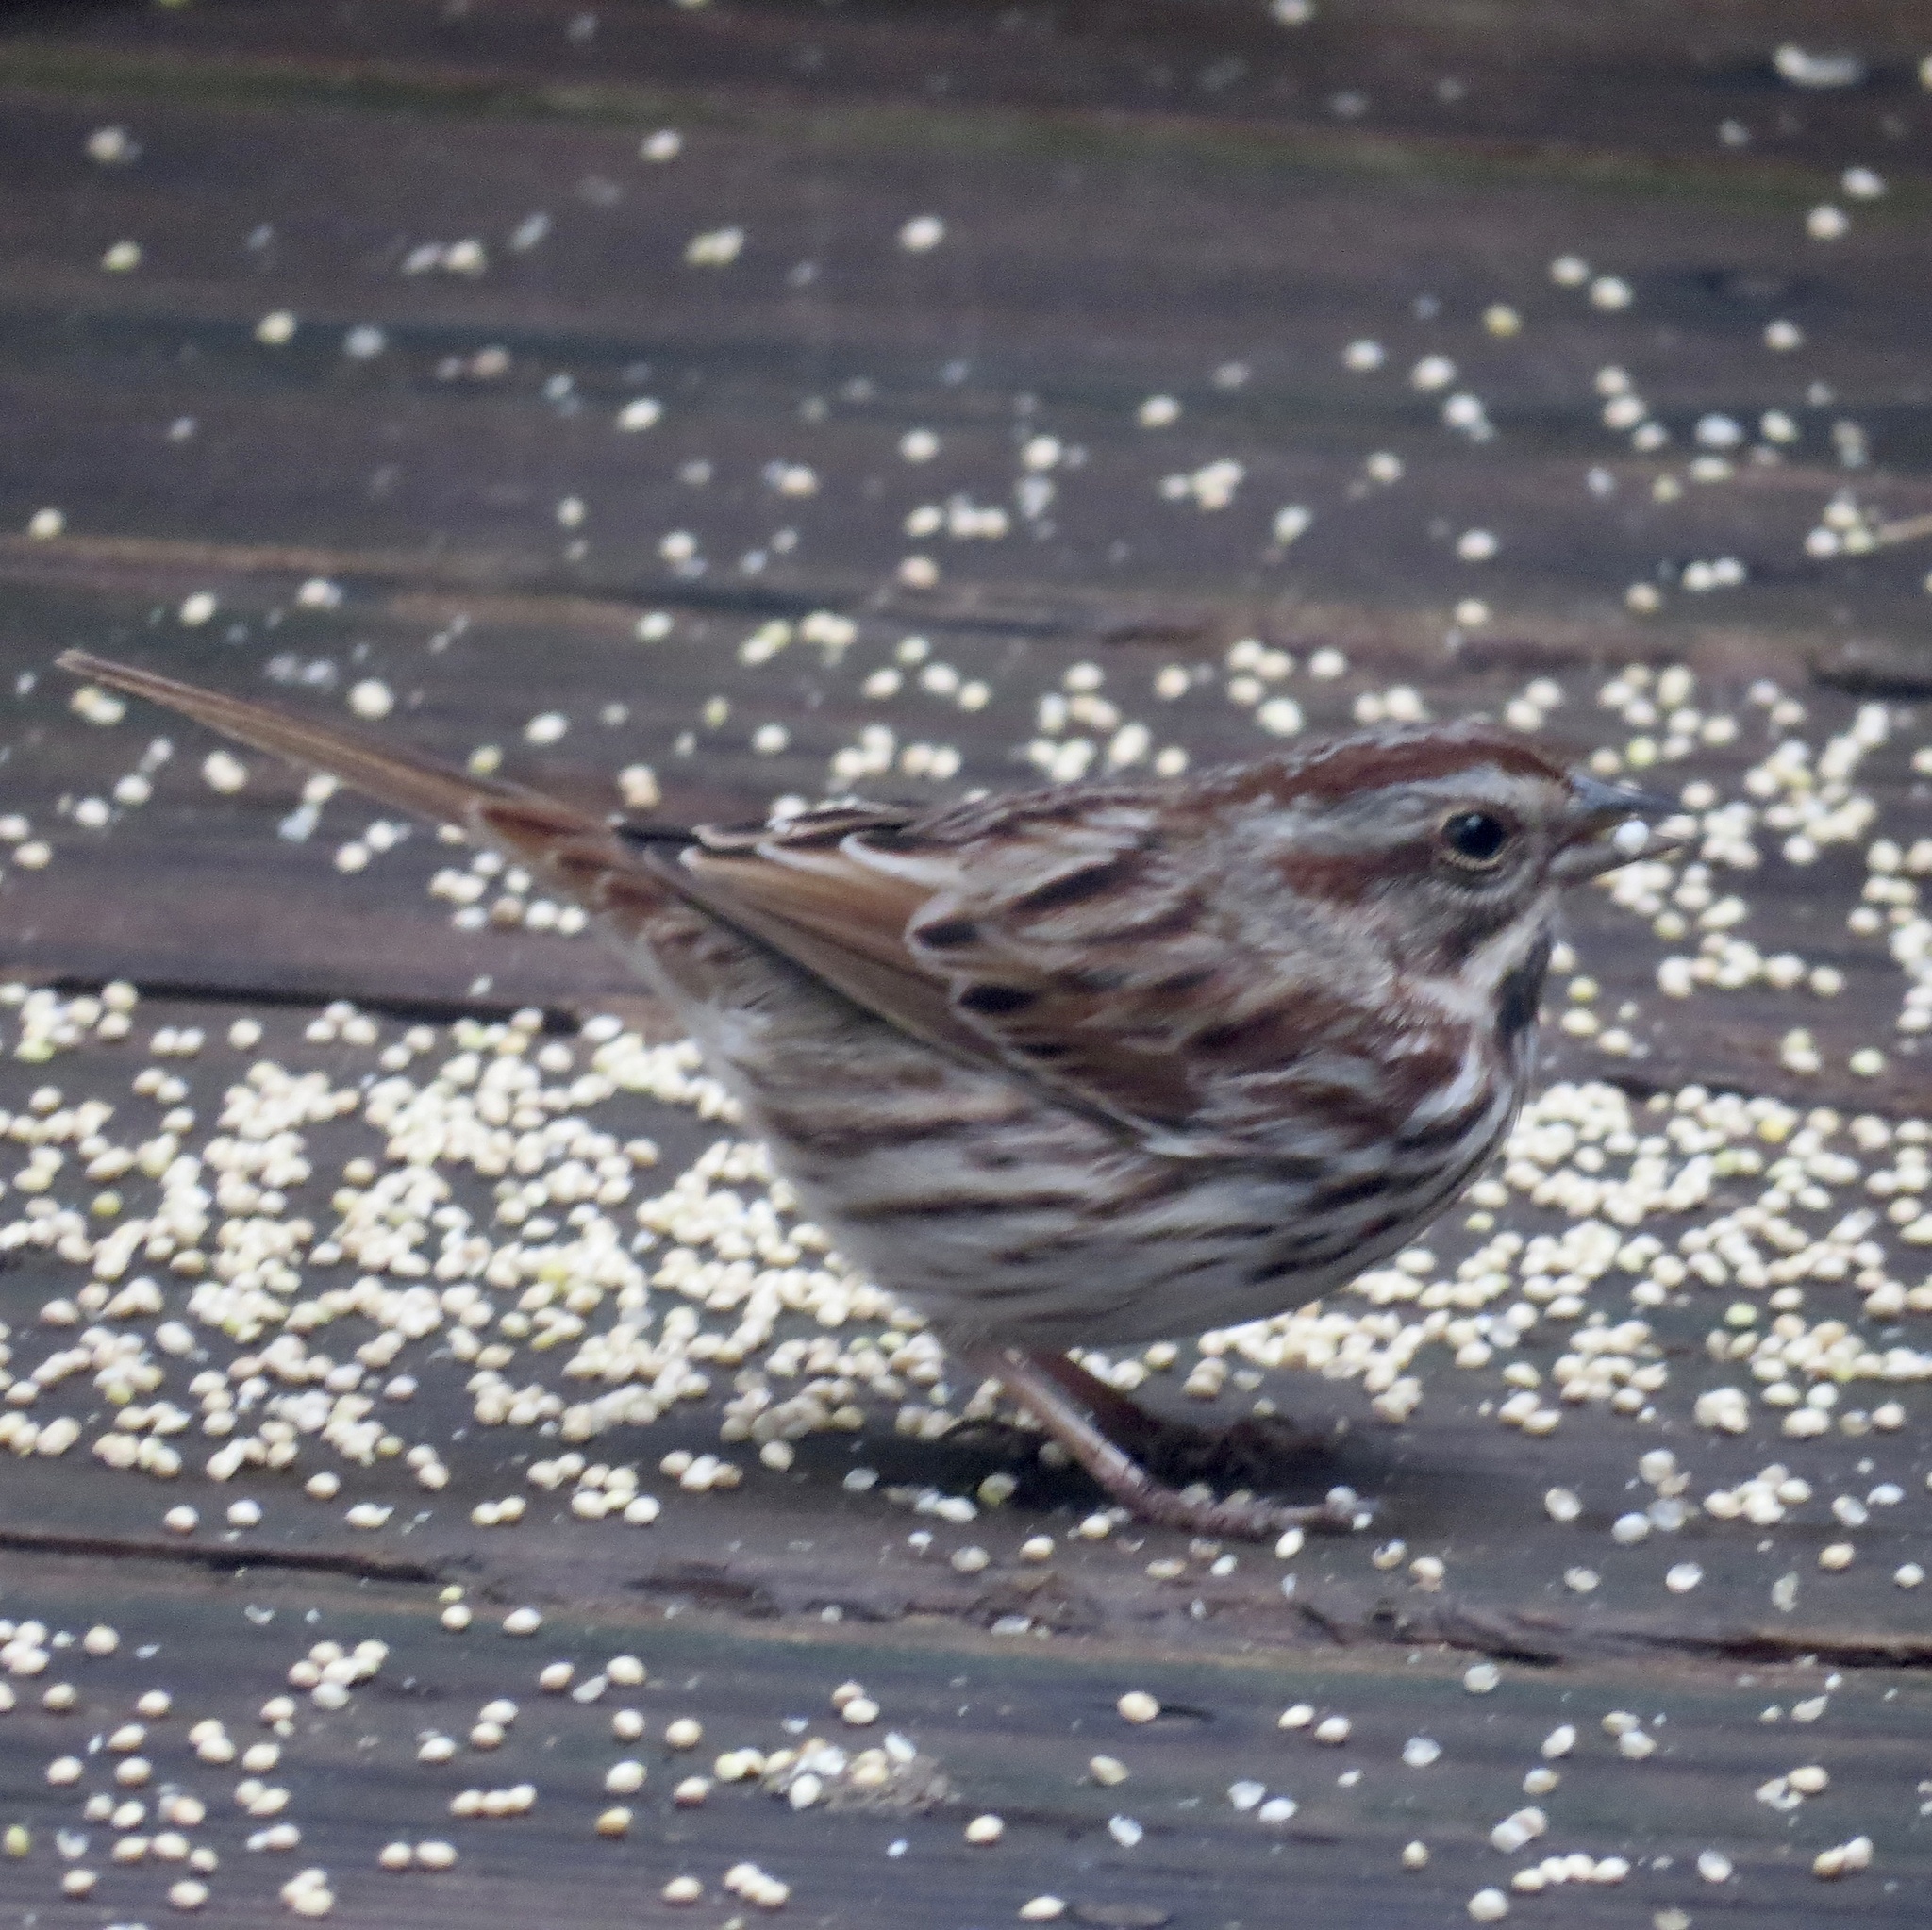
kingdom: Animalia
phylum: Chordata
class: Aves
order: Passeriformes
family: Passerellidae
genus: Melospiza
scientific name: Melospiza melodia
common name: Song sparrow
